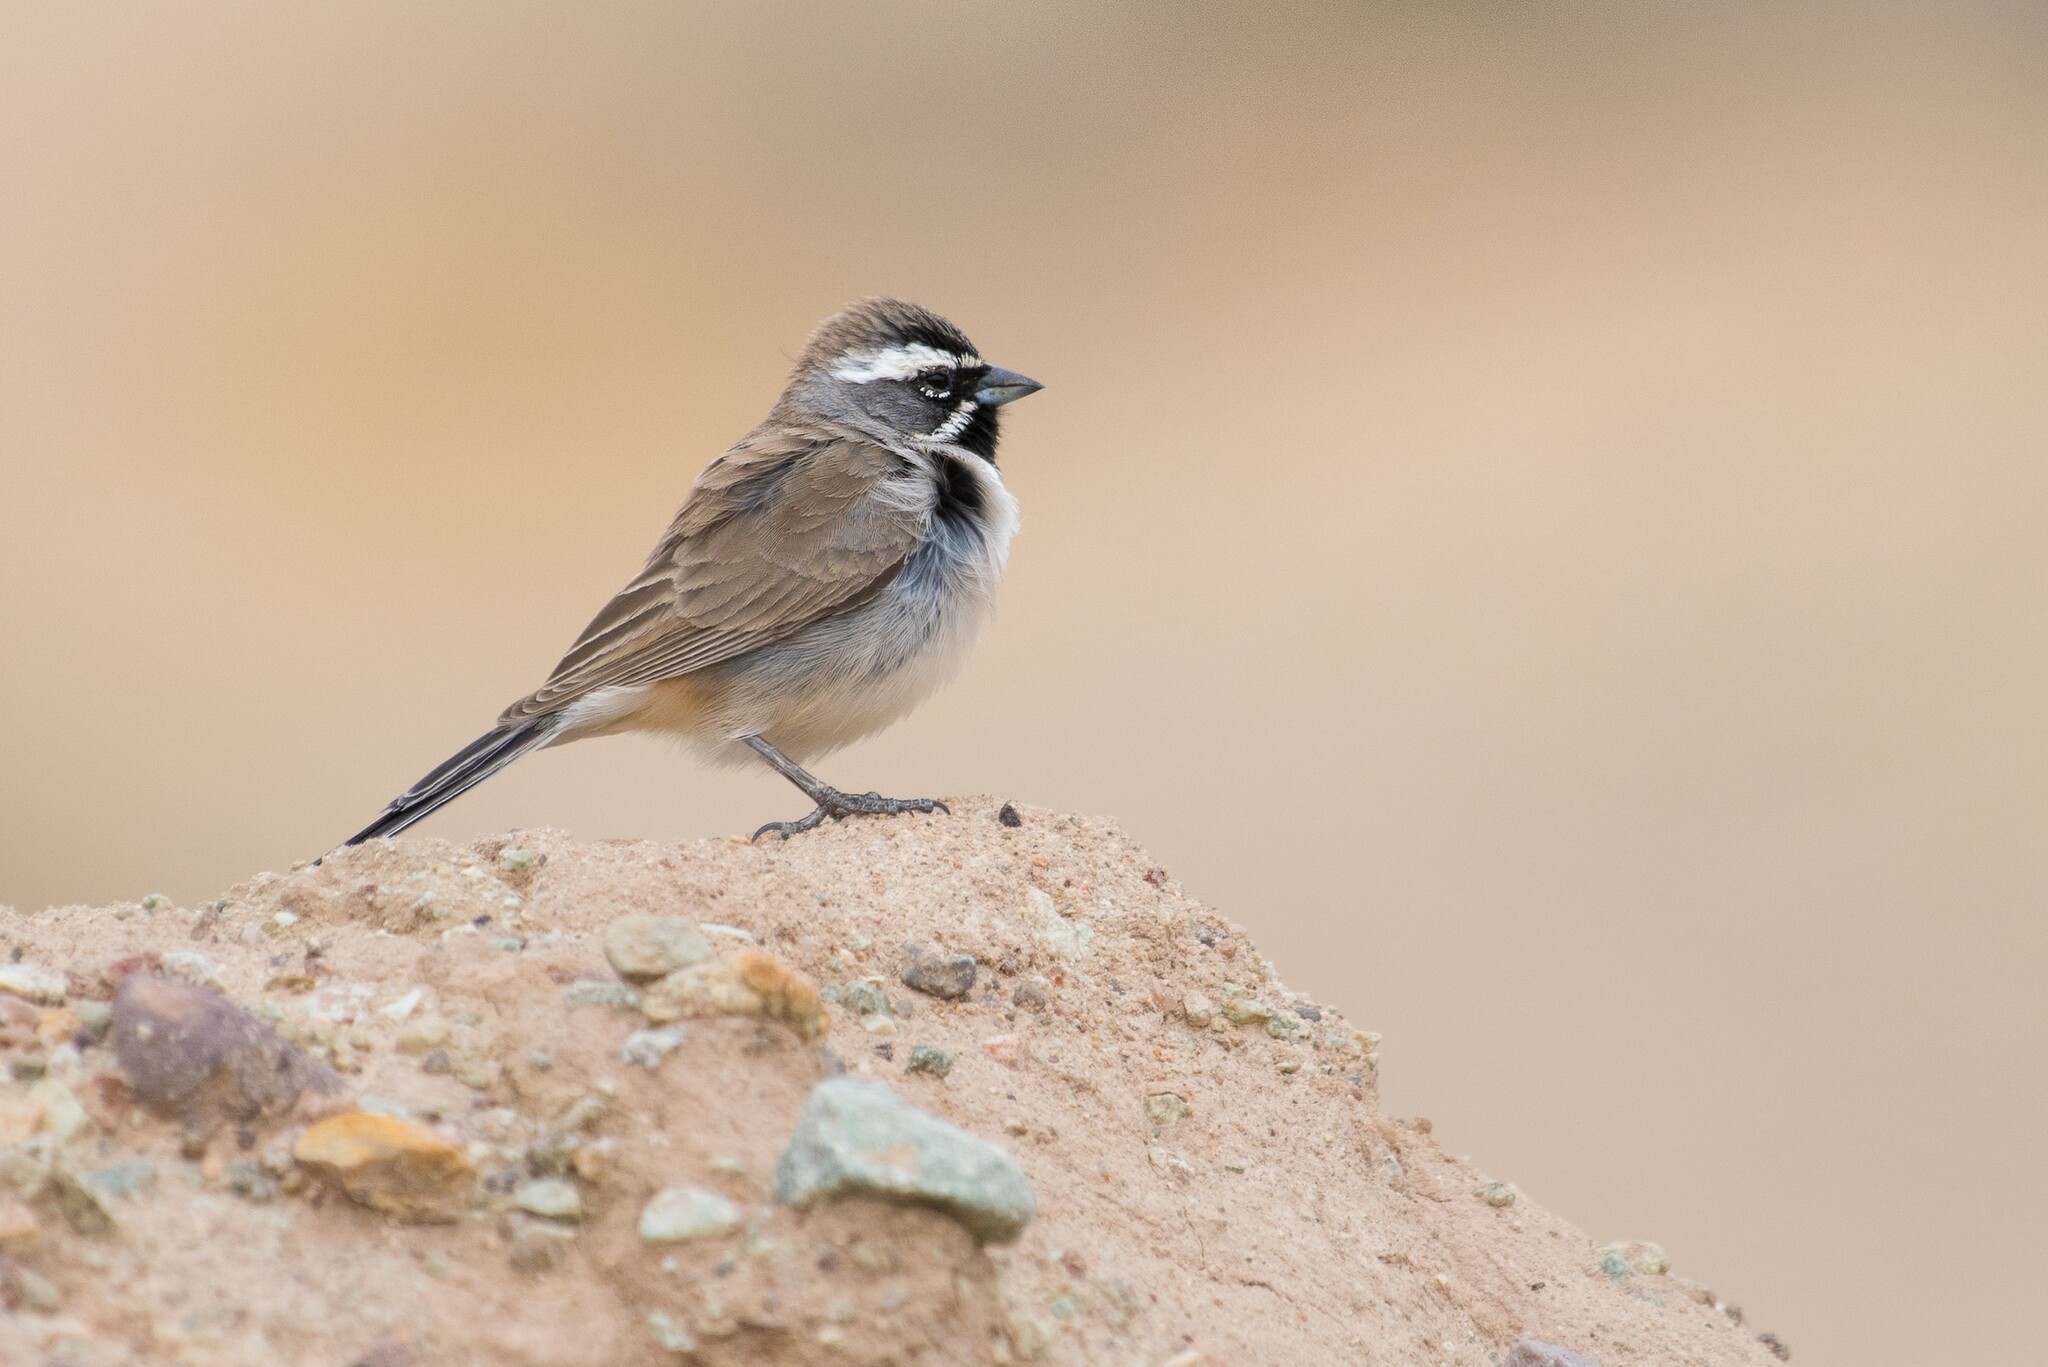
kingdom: Animalia
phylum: Chordata
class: Aves
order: Passeriformes
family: Passerellidae
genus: Amphispiza
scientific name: Amphispiza bilineata
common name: Black-throated sparrow
